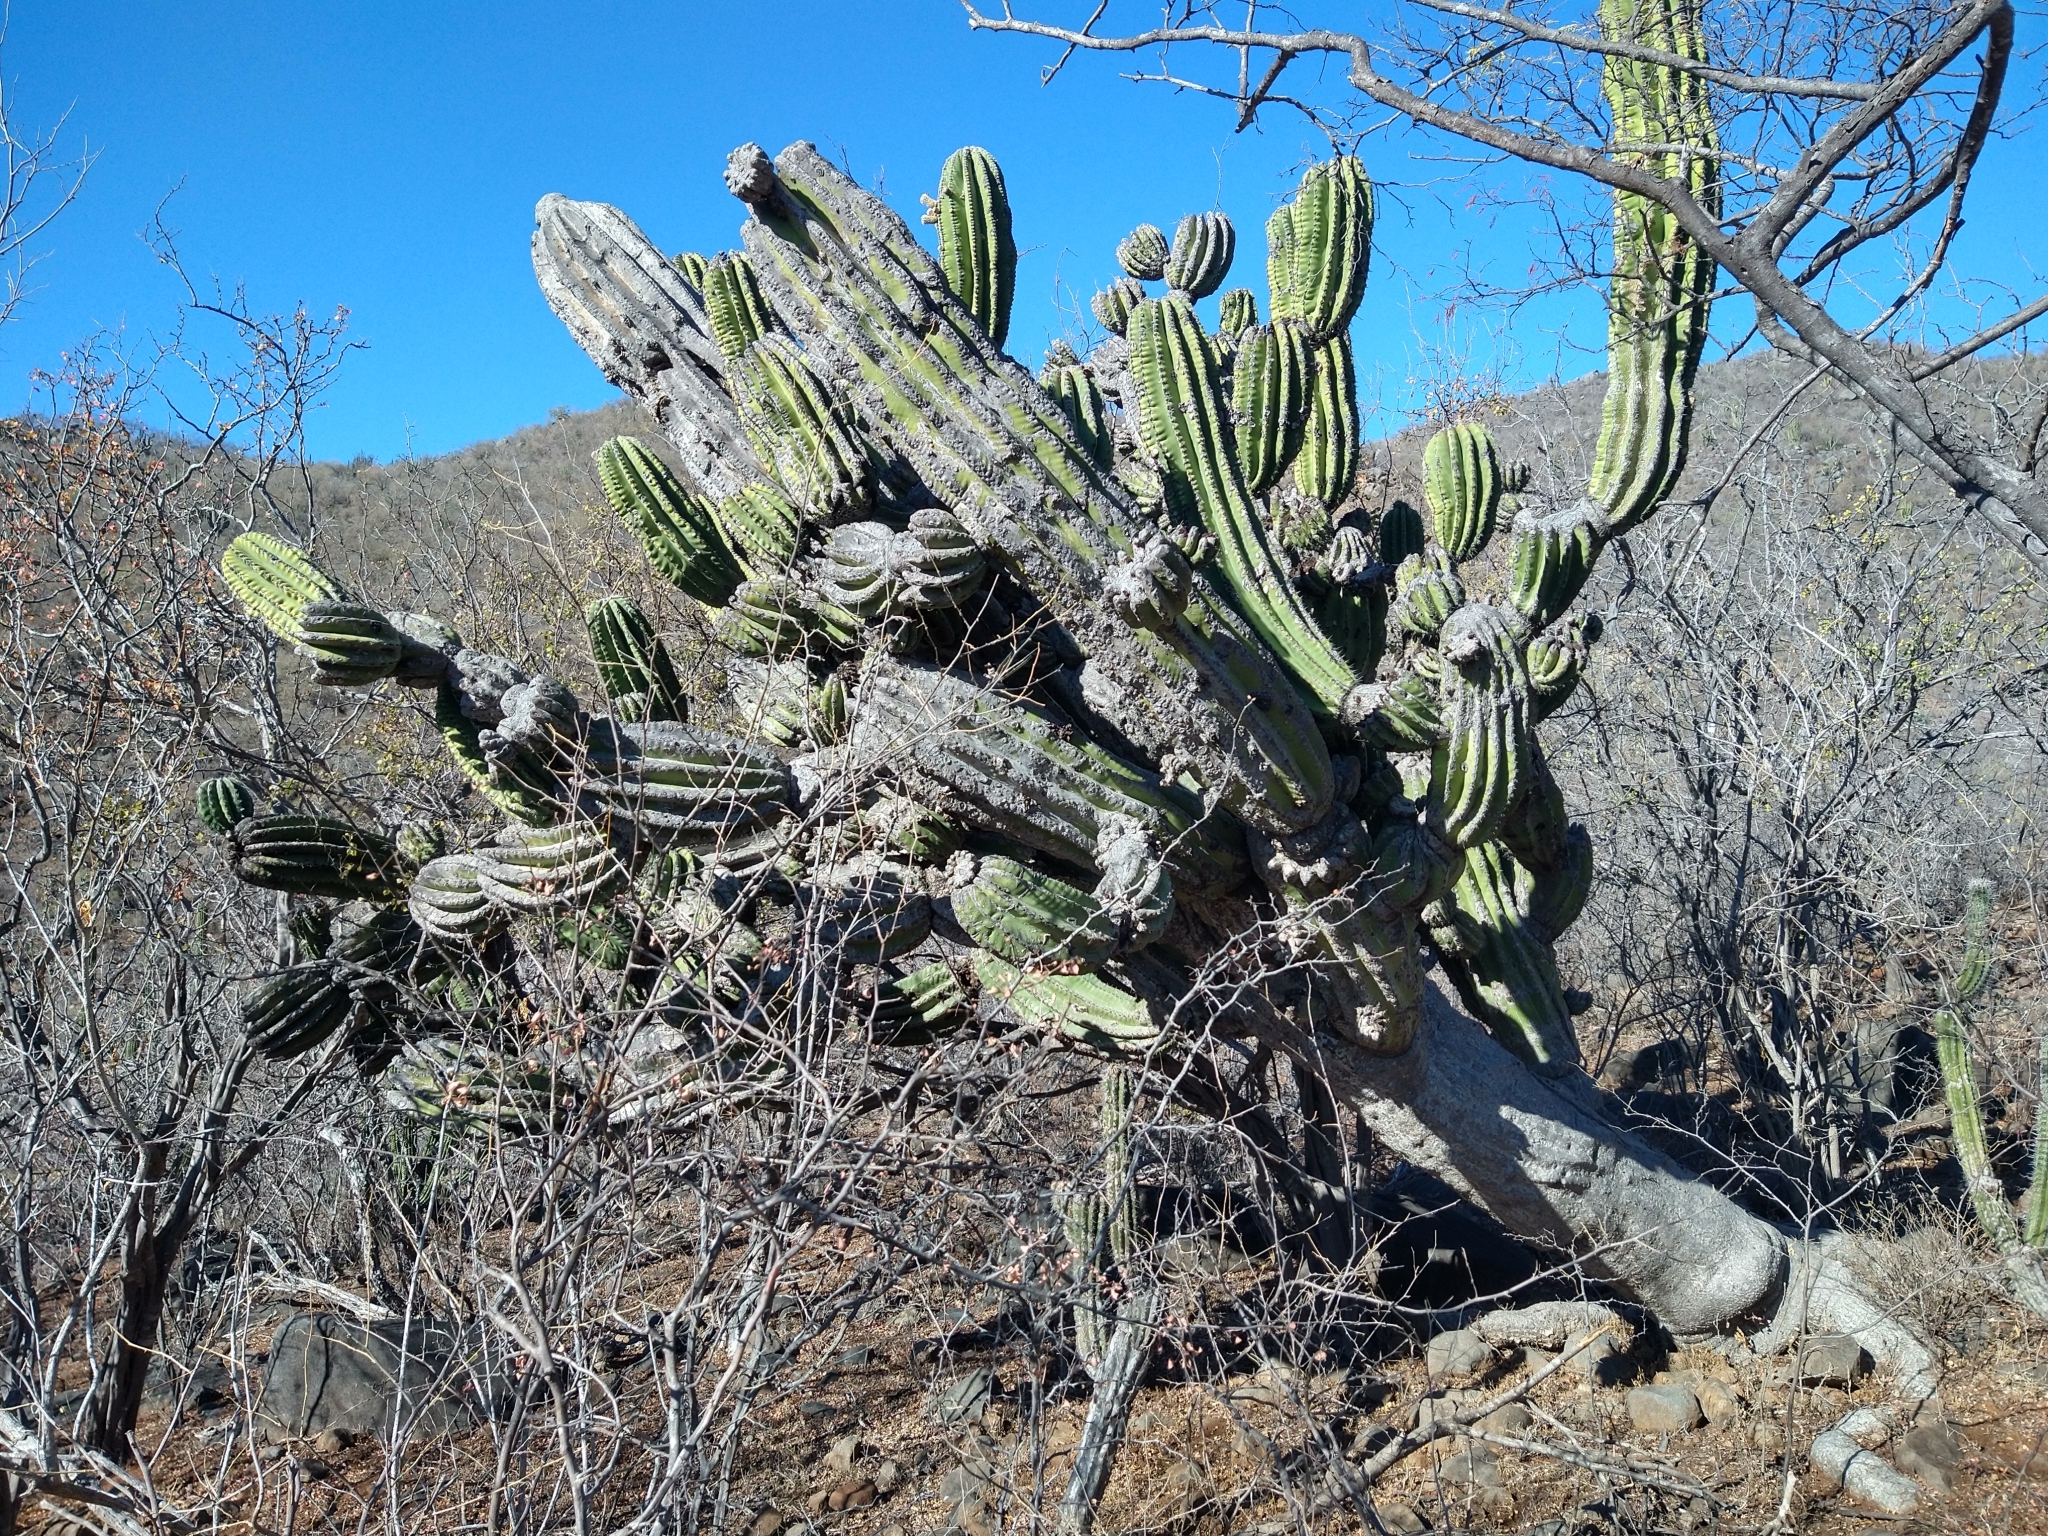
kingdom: Plantae
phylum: Tracheophyta
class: Magnoliopsida
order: Caryophyllales
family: Cactaceae
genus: Pachycereus
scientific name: Pachycereus pringlei
